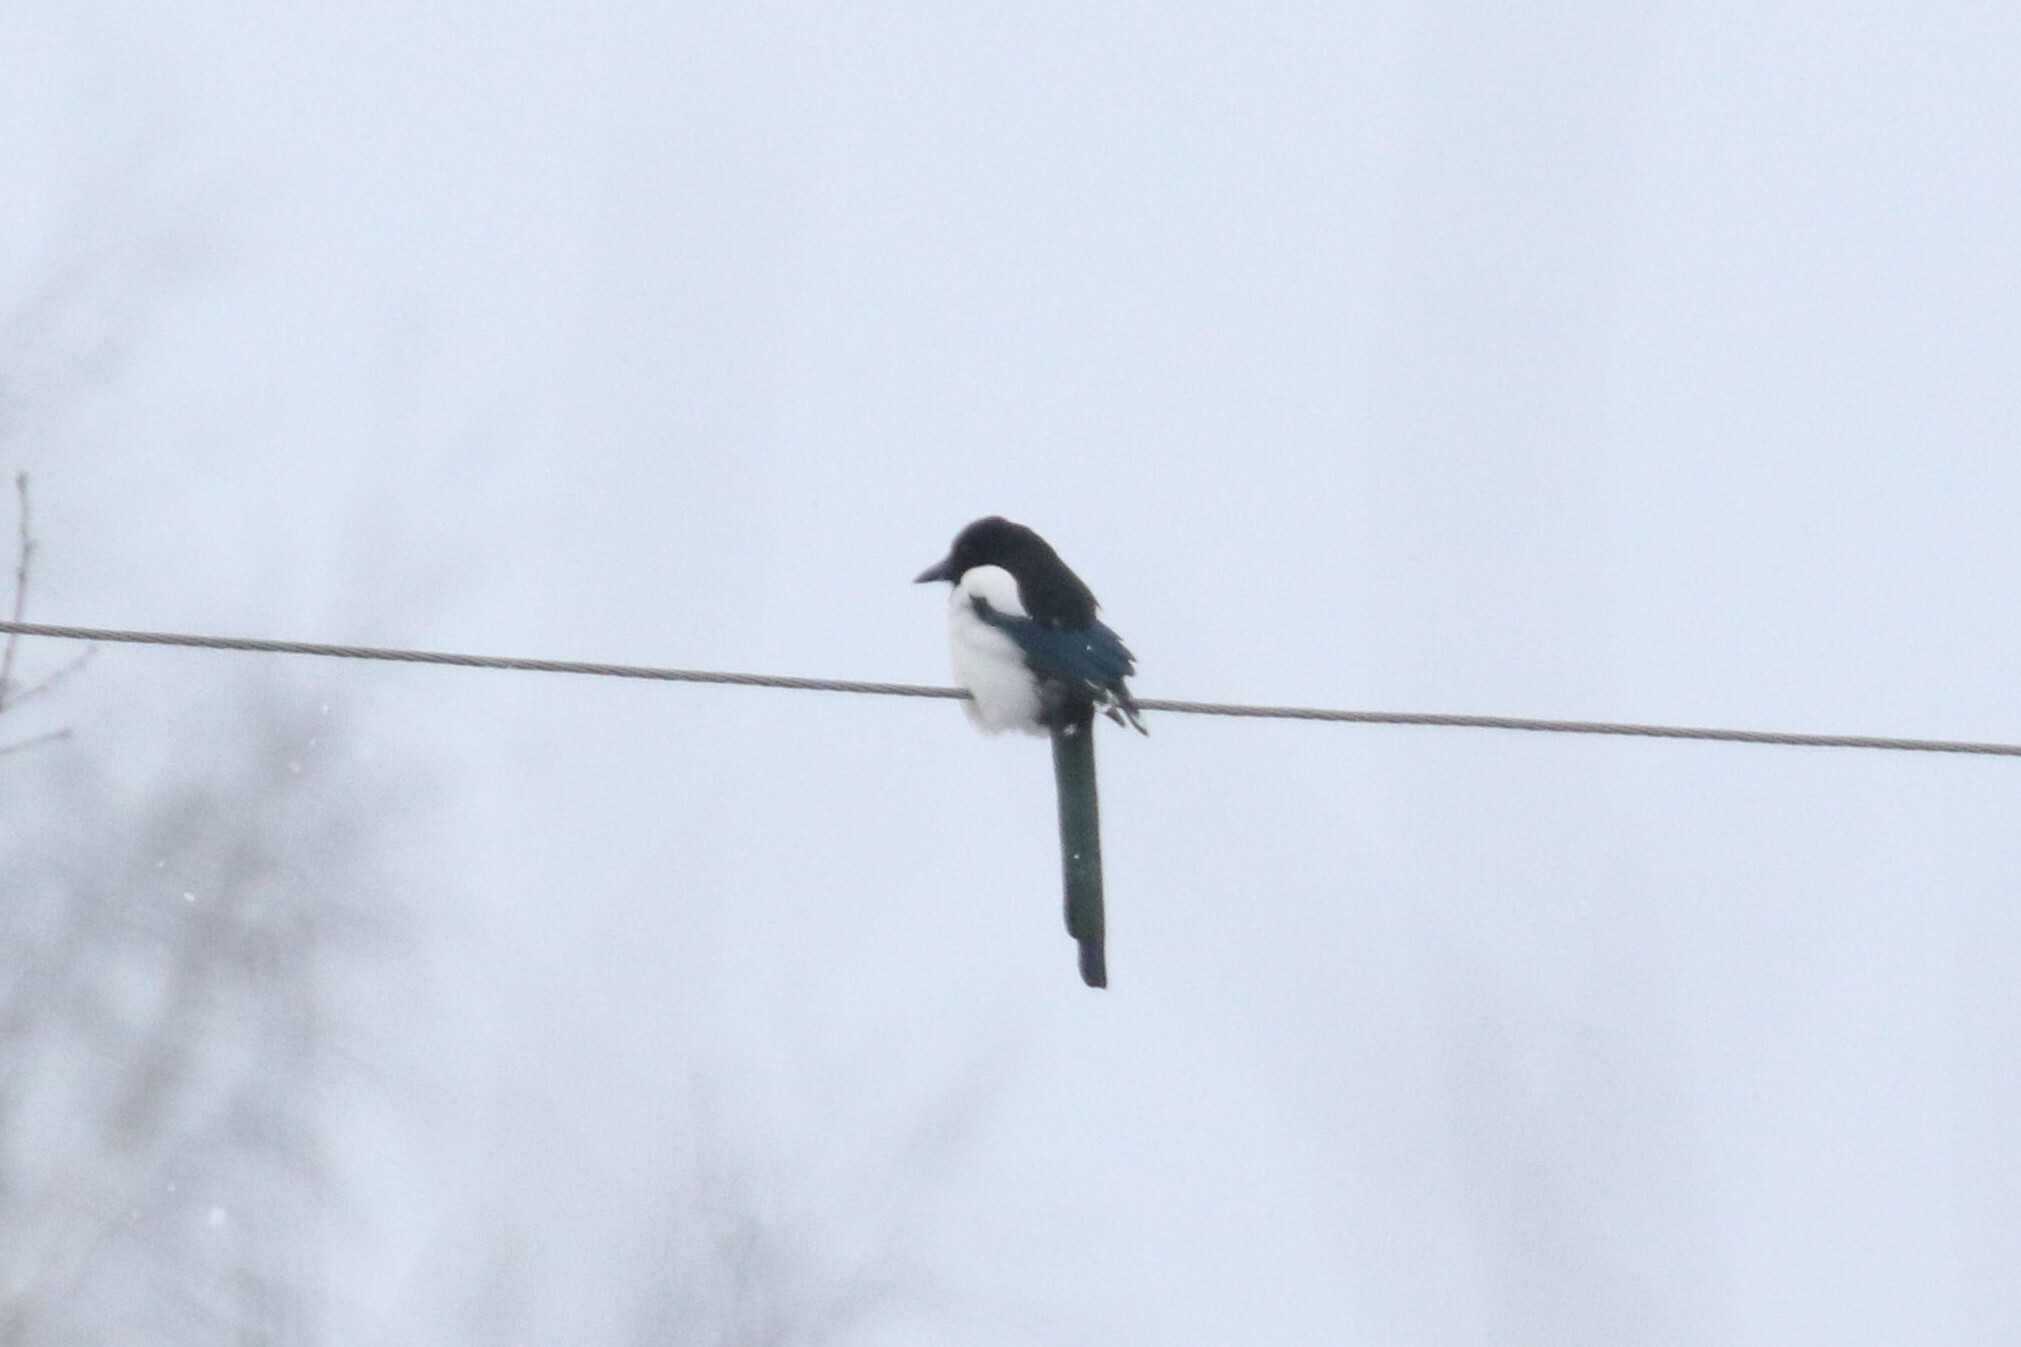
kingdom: Animalia
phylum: Chordata
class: Aves
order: Passeriformes
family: Corvidae
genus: Pica
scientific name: Pica pica
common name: Eurasian magpie
